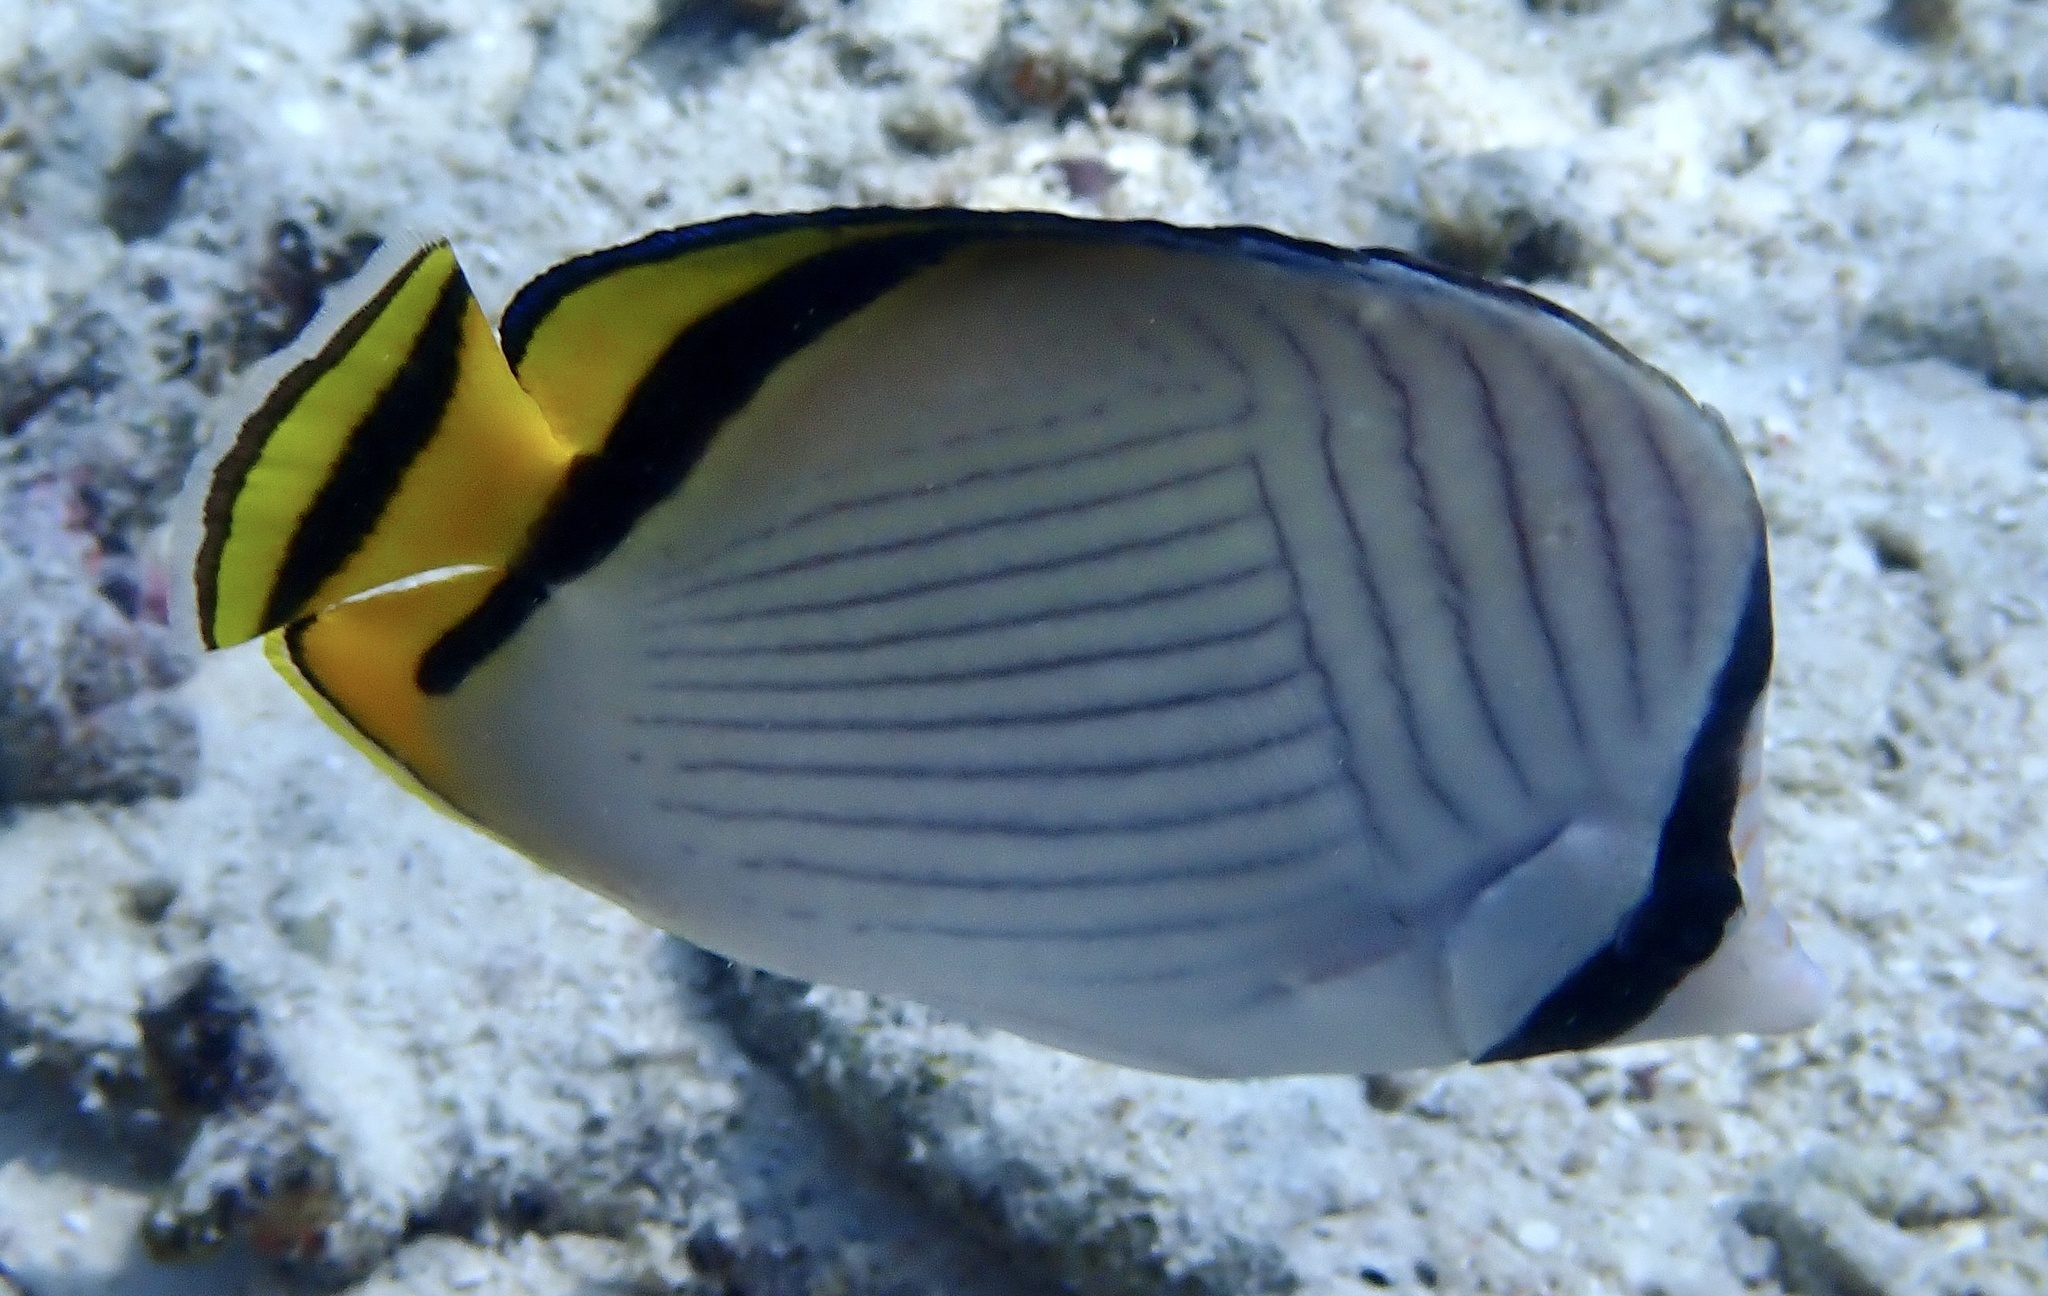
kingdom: Animalia
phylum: Chordata
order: Perciformes
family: Chaetodontidae
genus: Chaetodon
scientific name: Chaetodon vagabundus
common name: Vagabond butterflyfish
